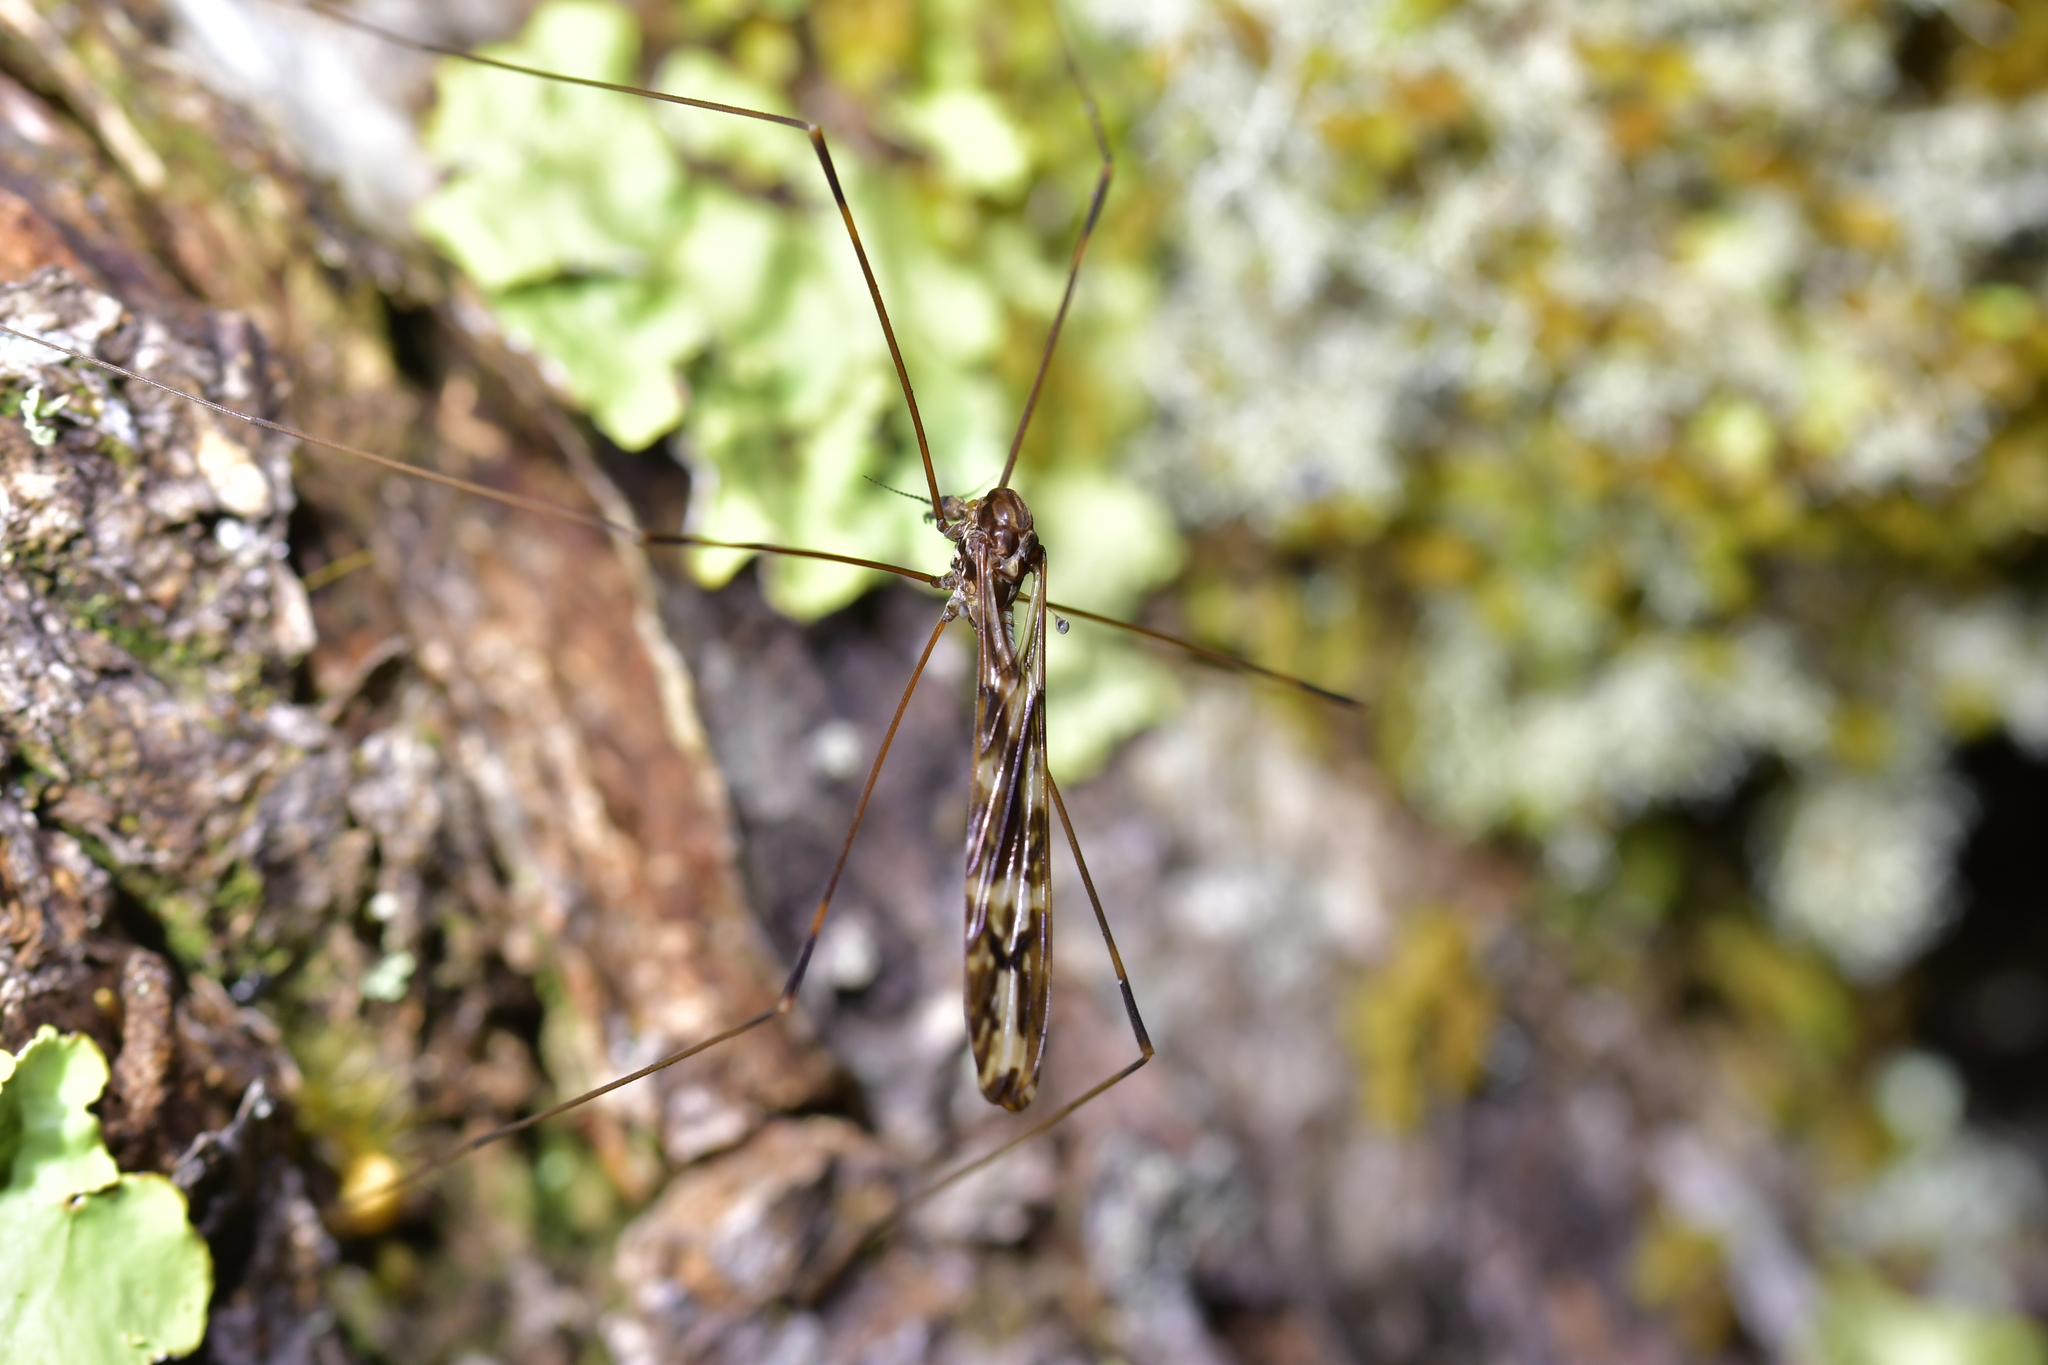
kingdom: Animalia
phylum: Arthropoda
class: Insecta
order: Diptera
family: Limoniidae
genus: Discobola
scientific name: Discobola dohrni
